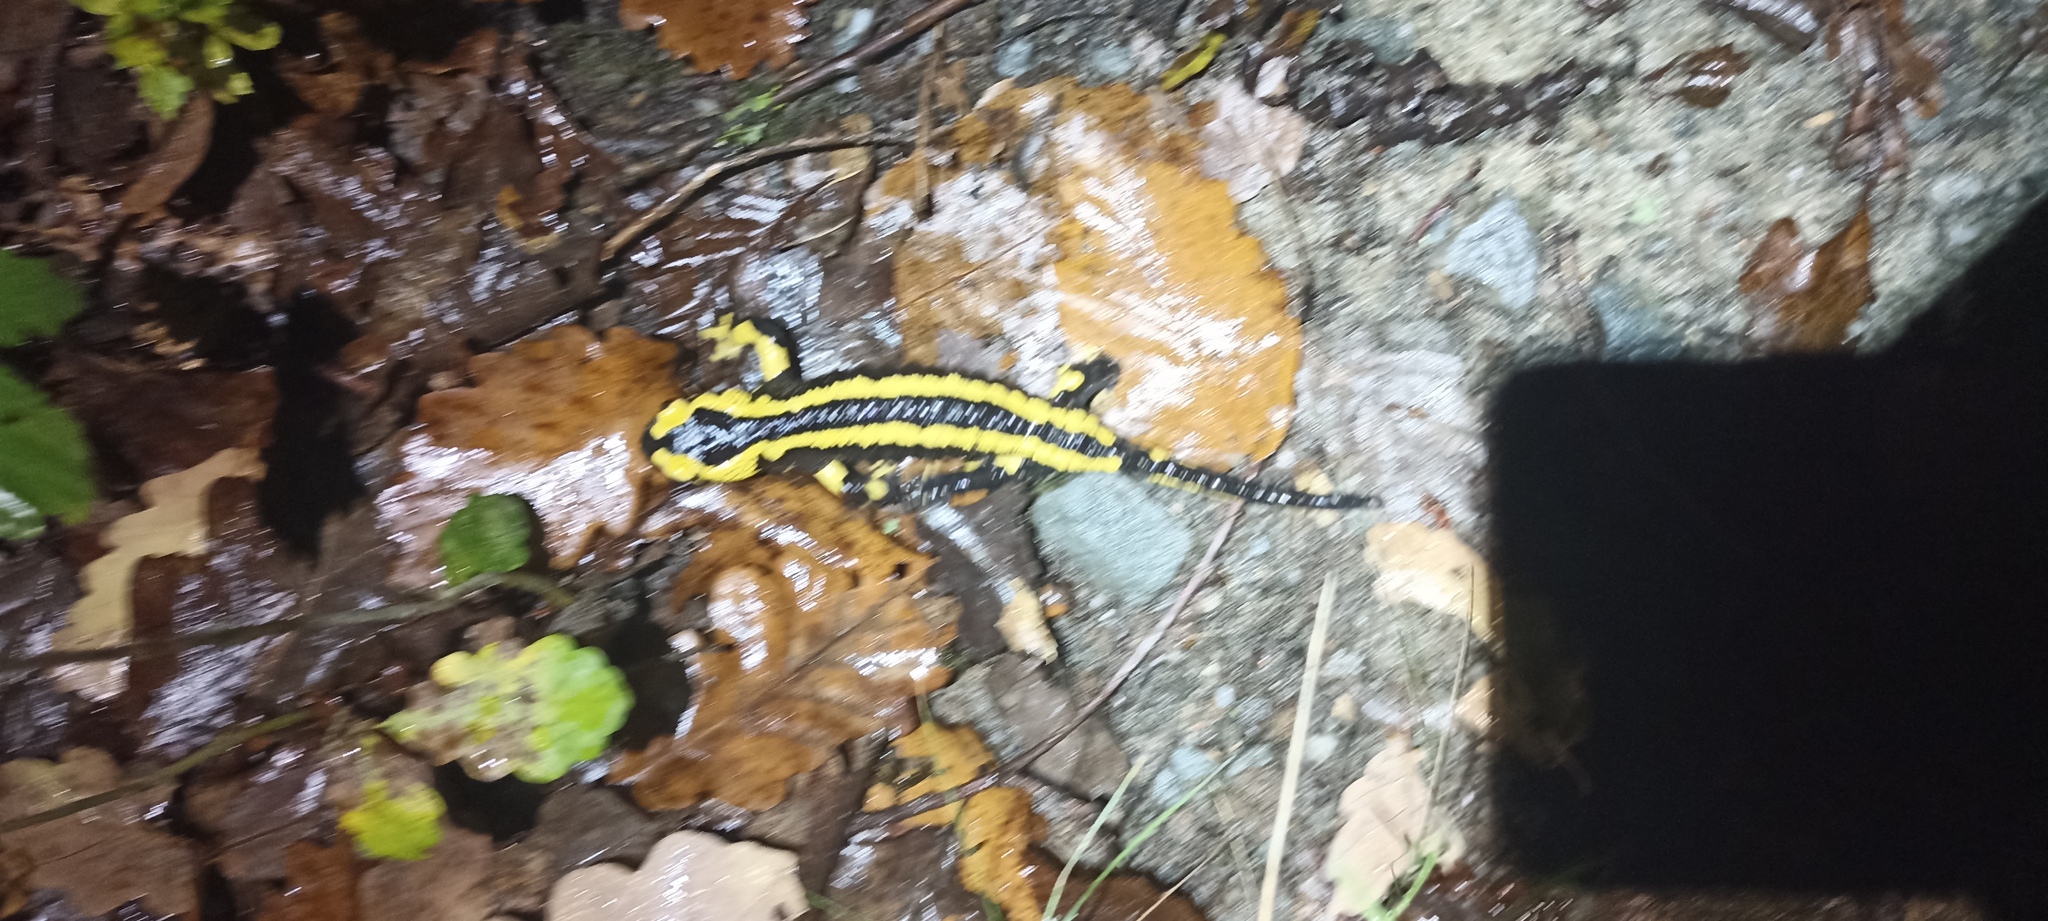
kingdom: Animalia
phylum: Chordata
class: Amphibia
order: Caudata
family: Salamandridae
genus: Salamandra
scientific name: Salamandra salamandra
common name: Fire salamander
